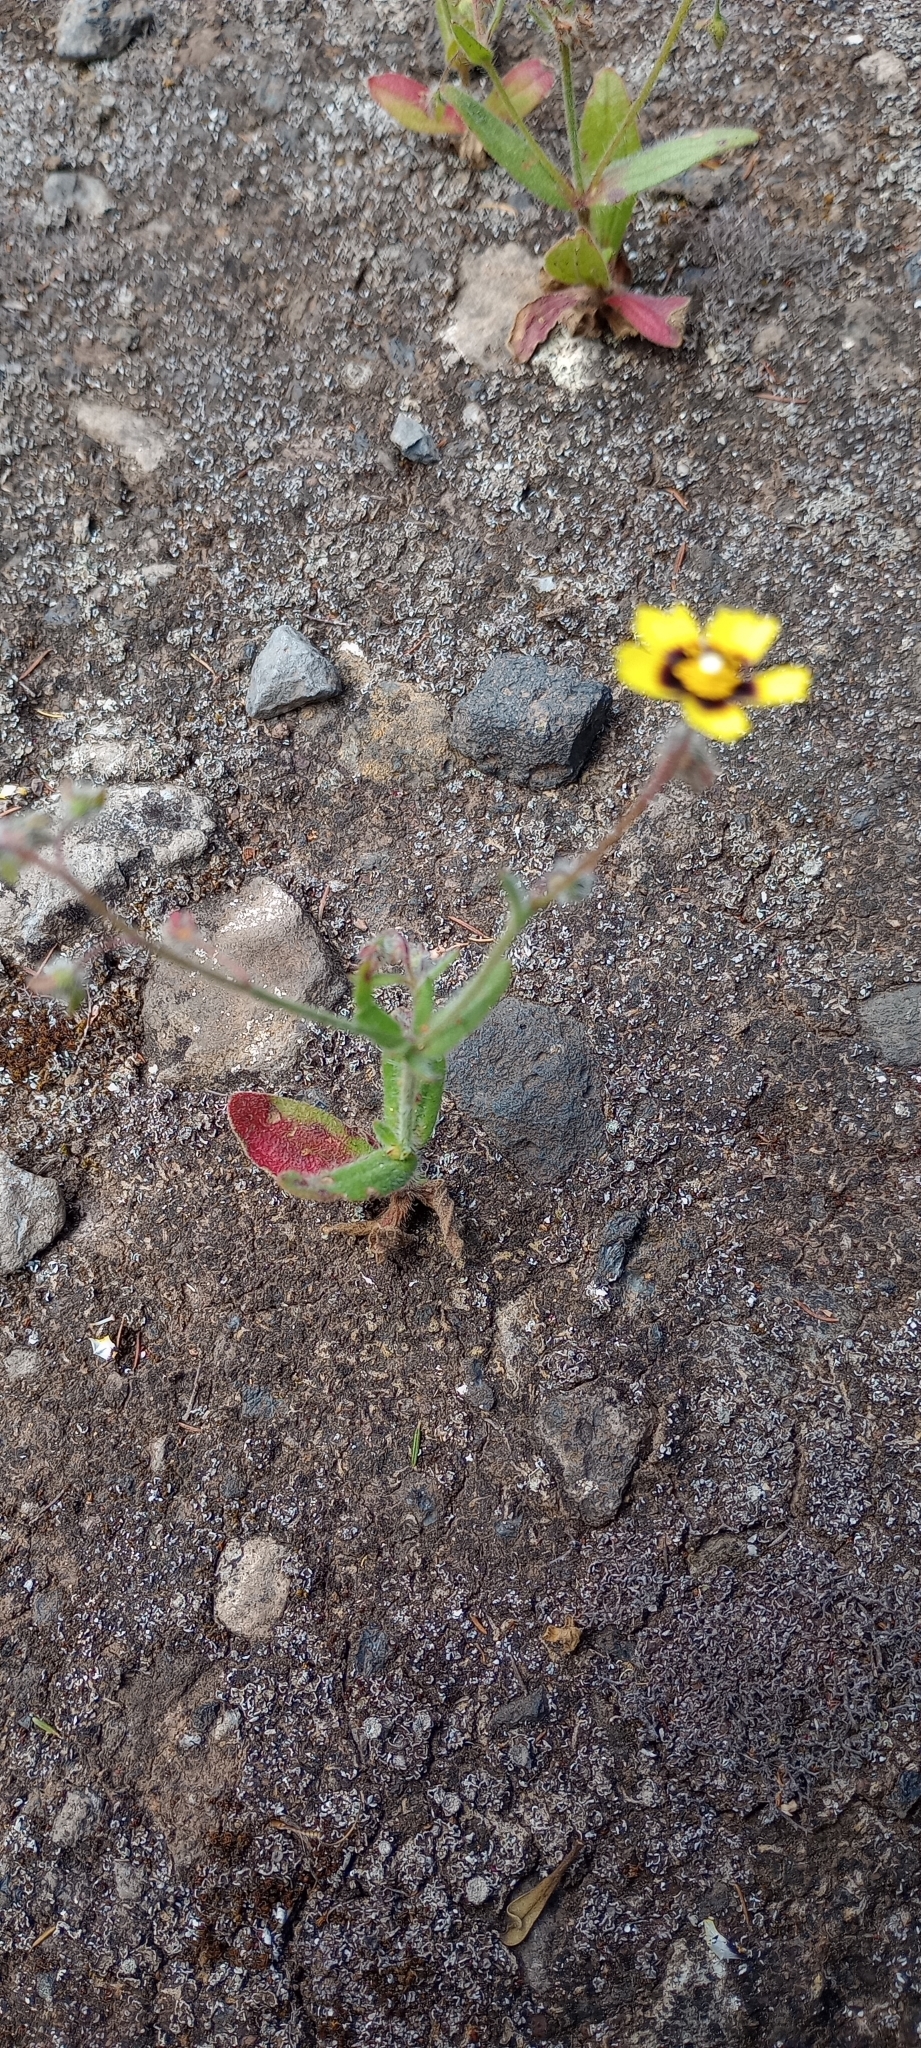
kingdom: Plantae
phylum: Tracheophyta
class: Magnoliopsida
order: Malvales
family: Cistaceae
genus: Tuberaria
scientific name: Tuberaria guttata
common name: Spotted rock-rose
